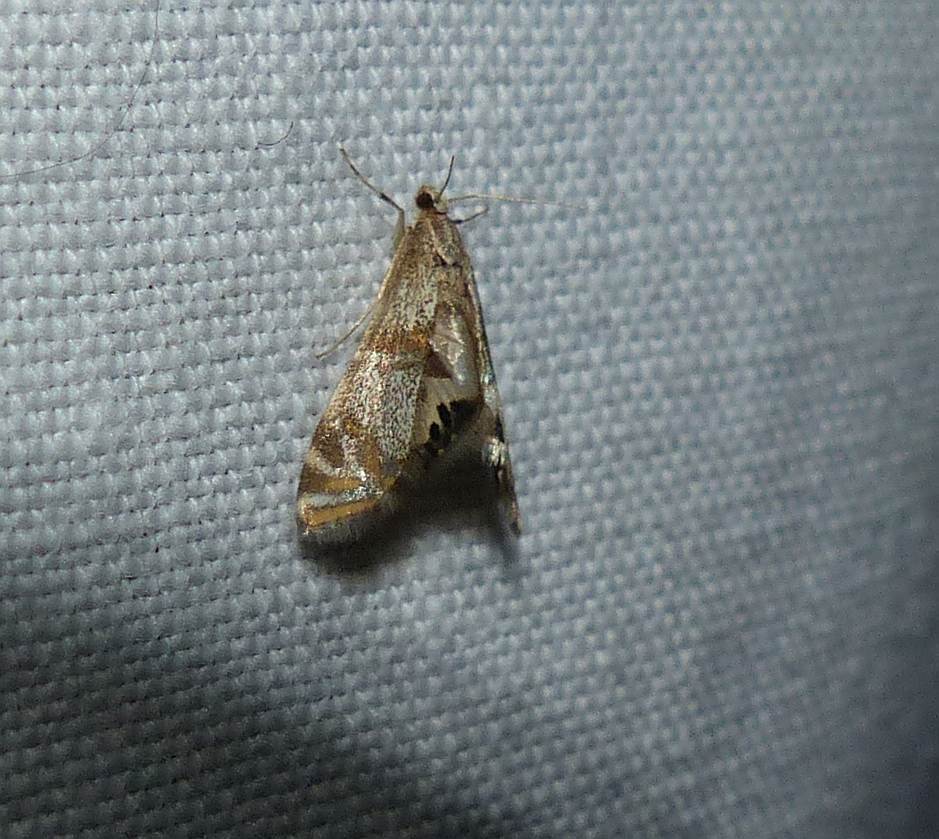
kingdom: Animalia
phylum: Arthropoda
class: Insecta
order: Lepidoptera
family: Crambidae
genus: Petrophila
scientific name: Petrophila bifascialis
